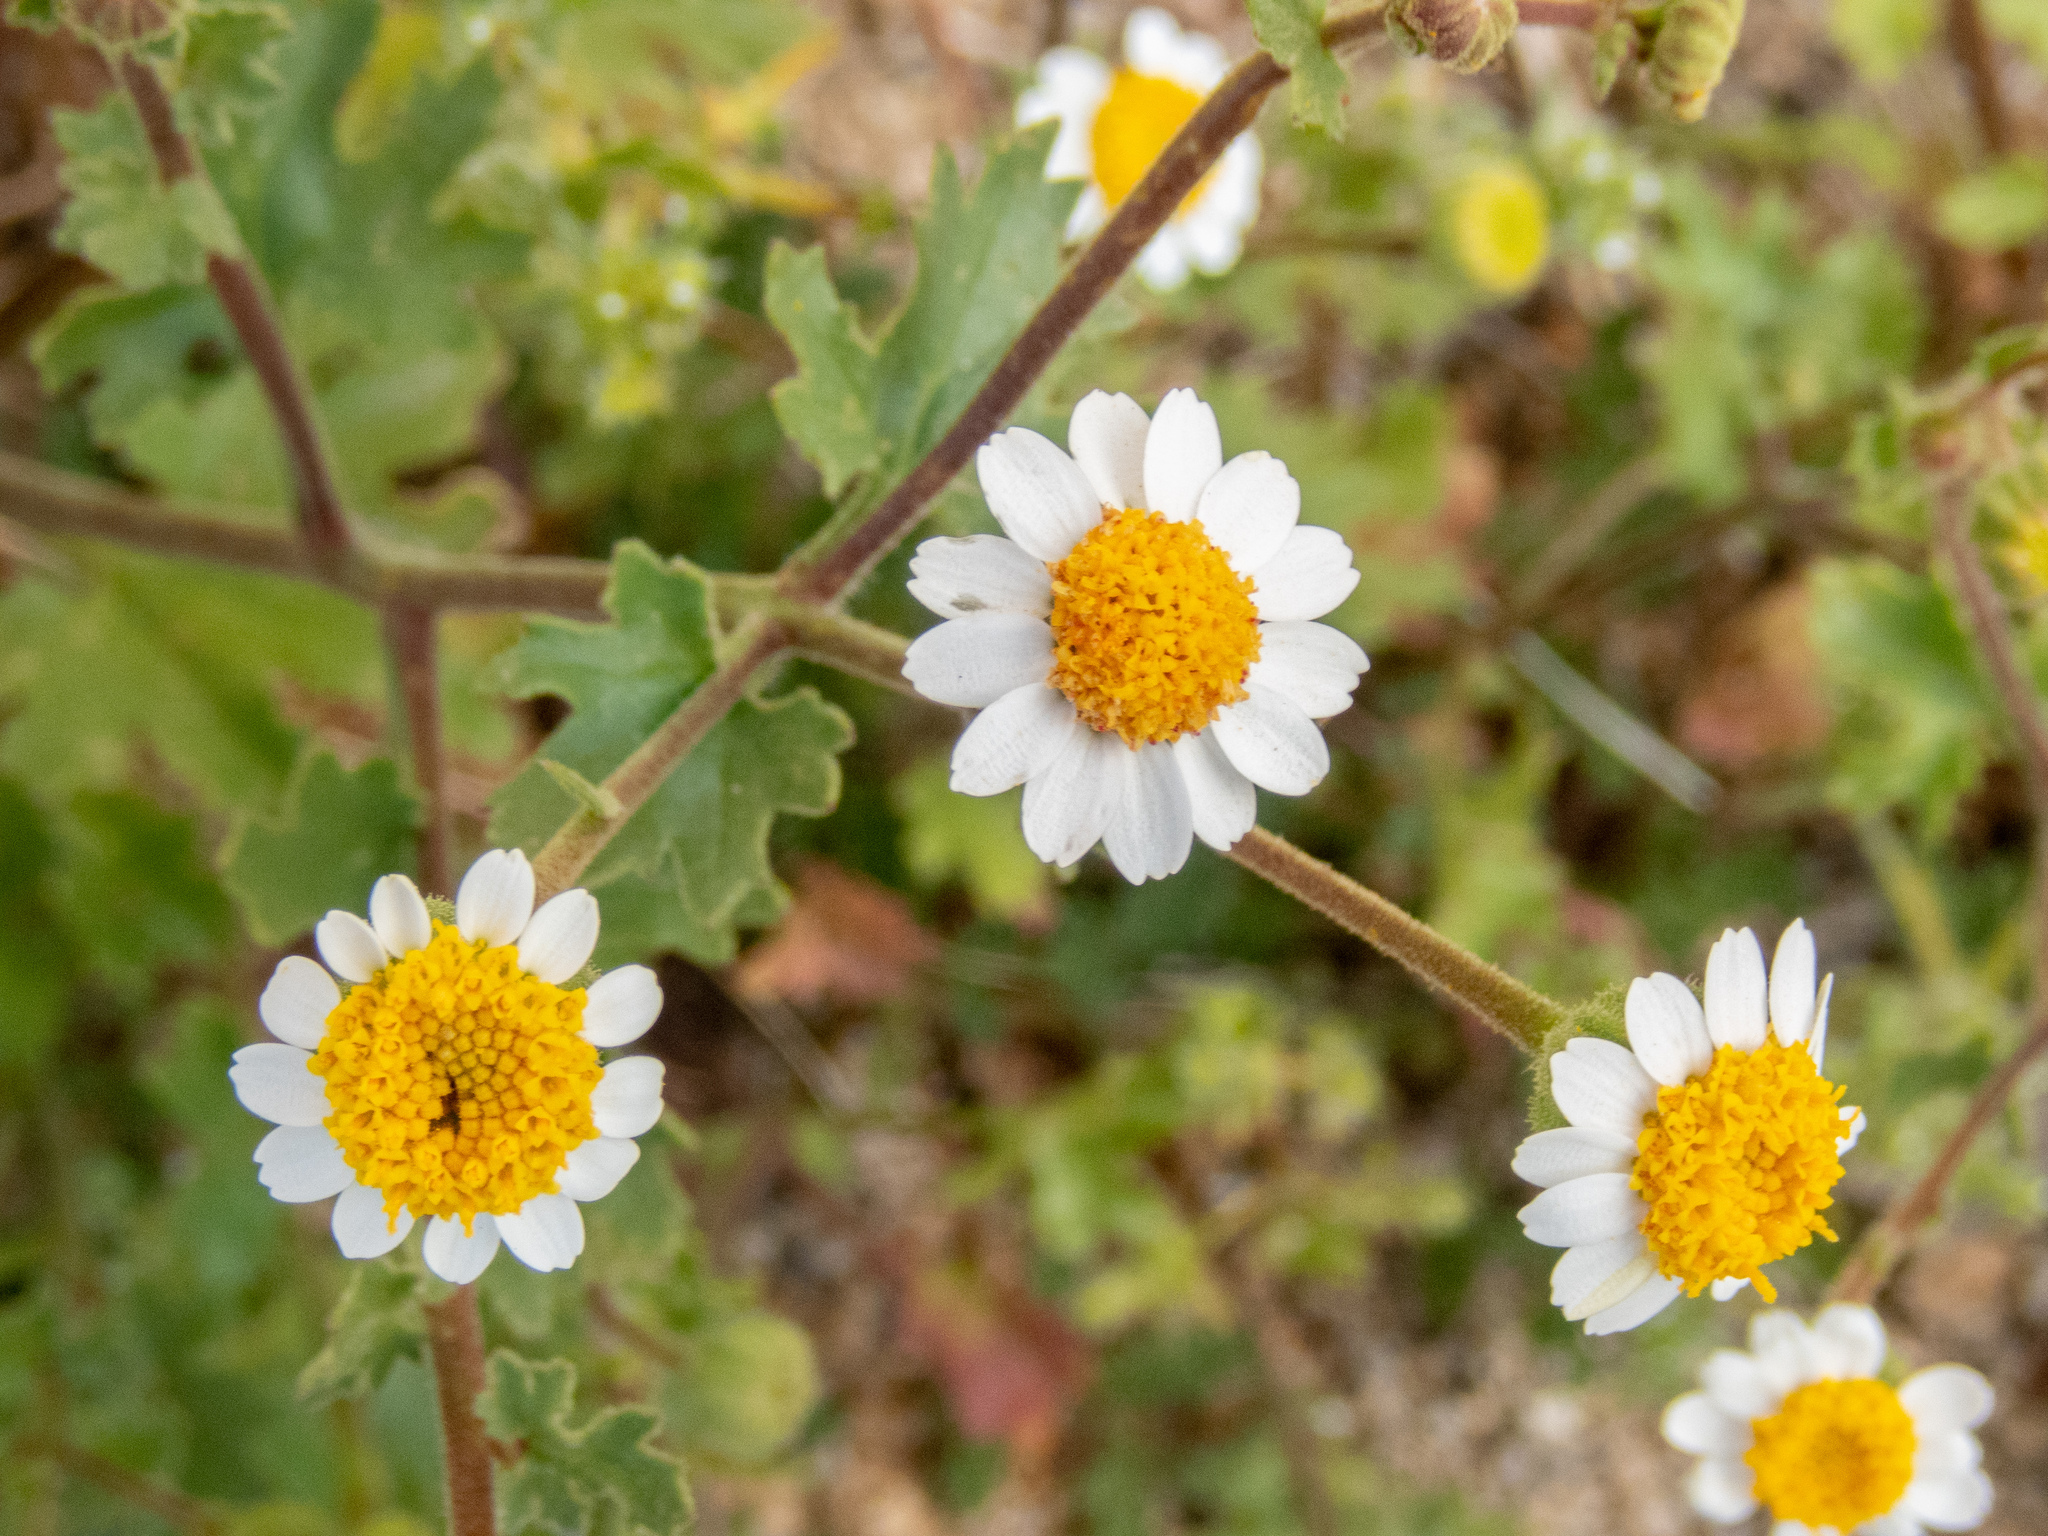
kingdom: Plantae
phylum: Tracheophyta
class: Magnoliopsida
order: Asterales
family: Asteraceae
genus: Laphamia
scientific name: Laphamia emoryi
